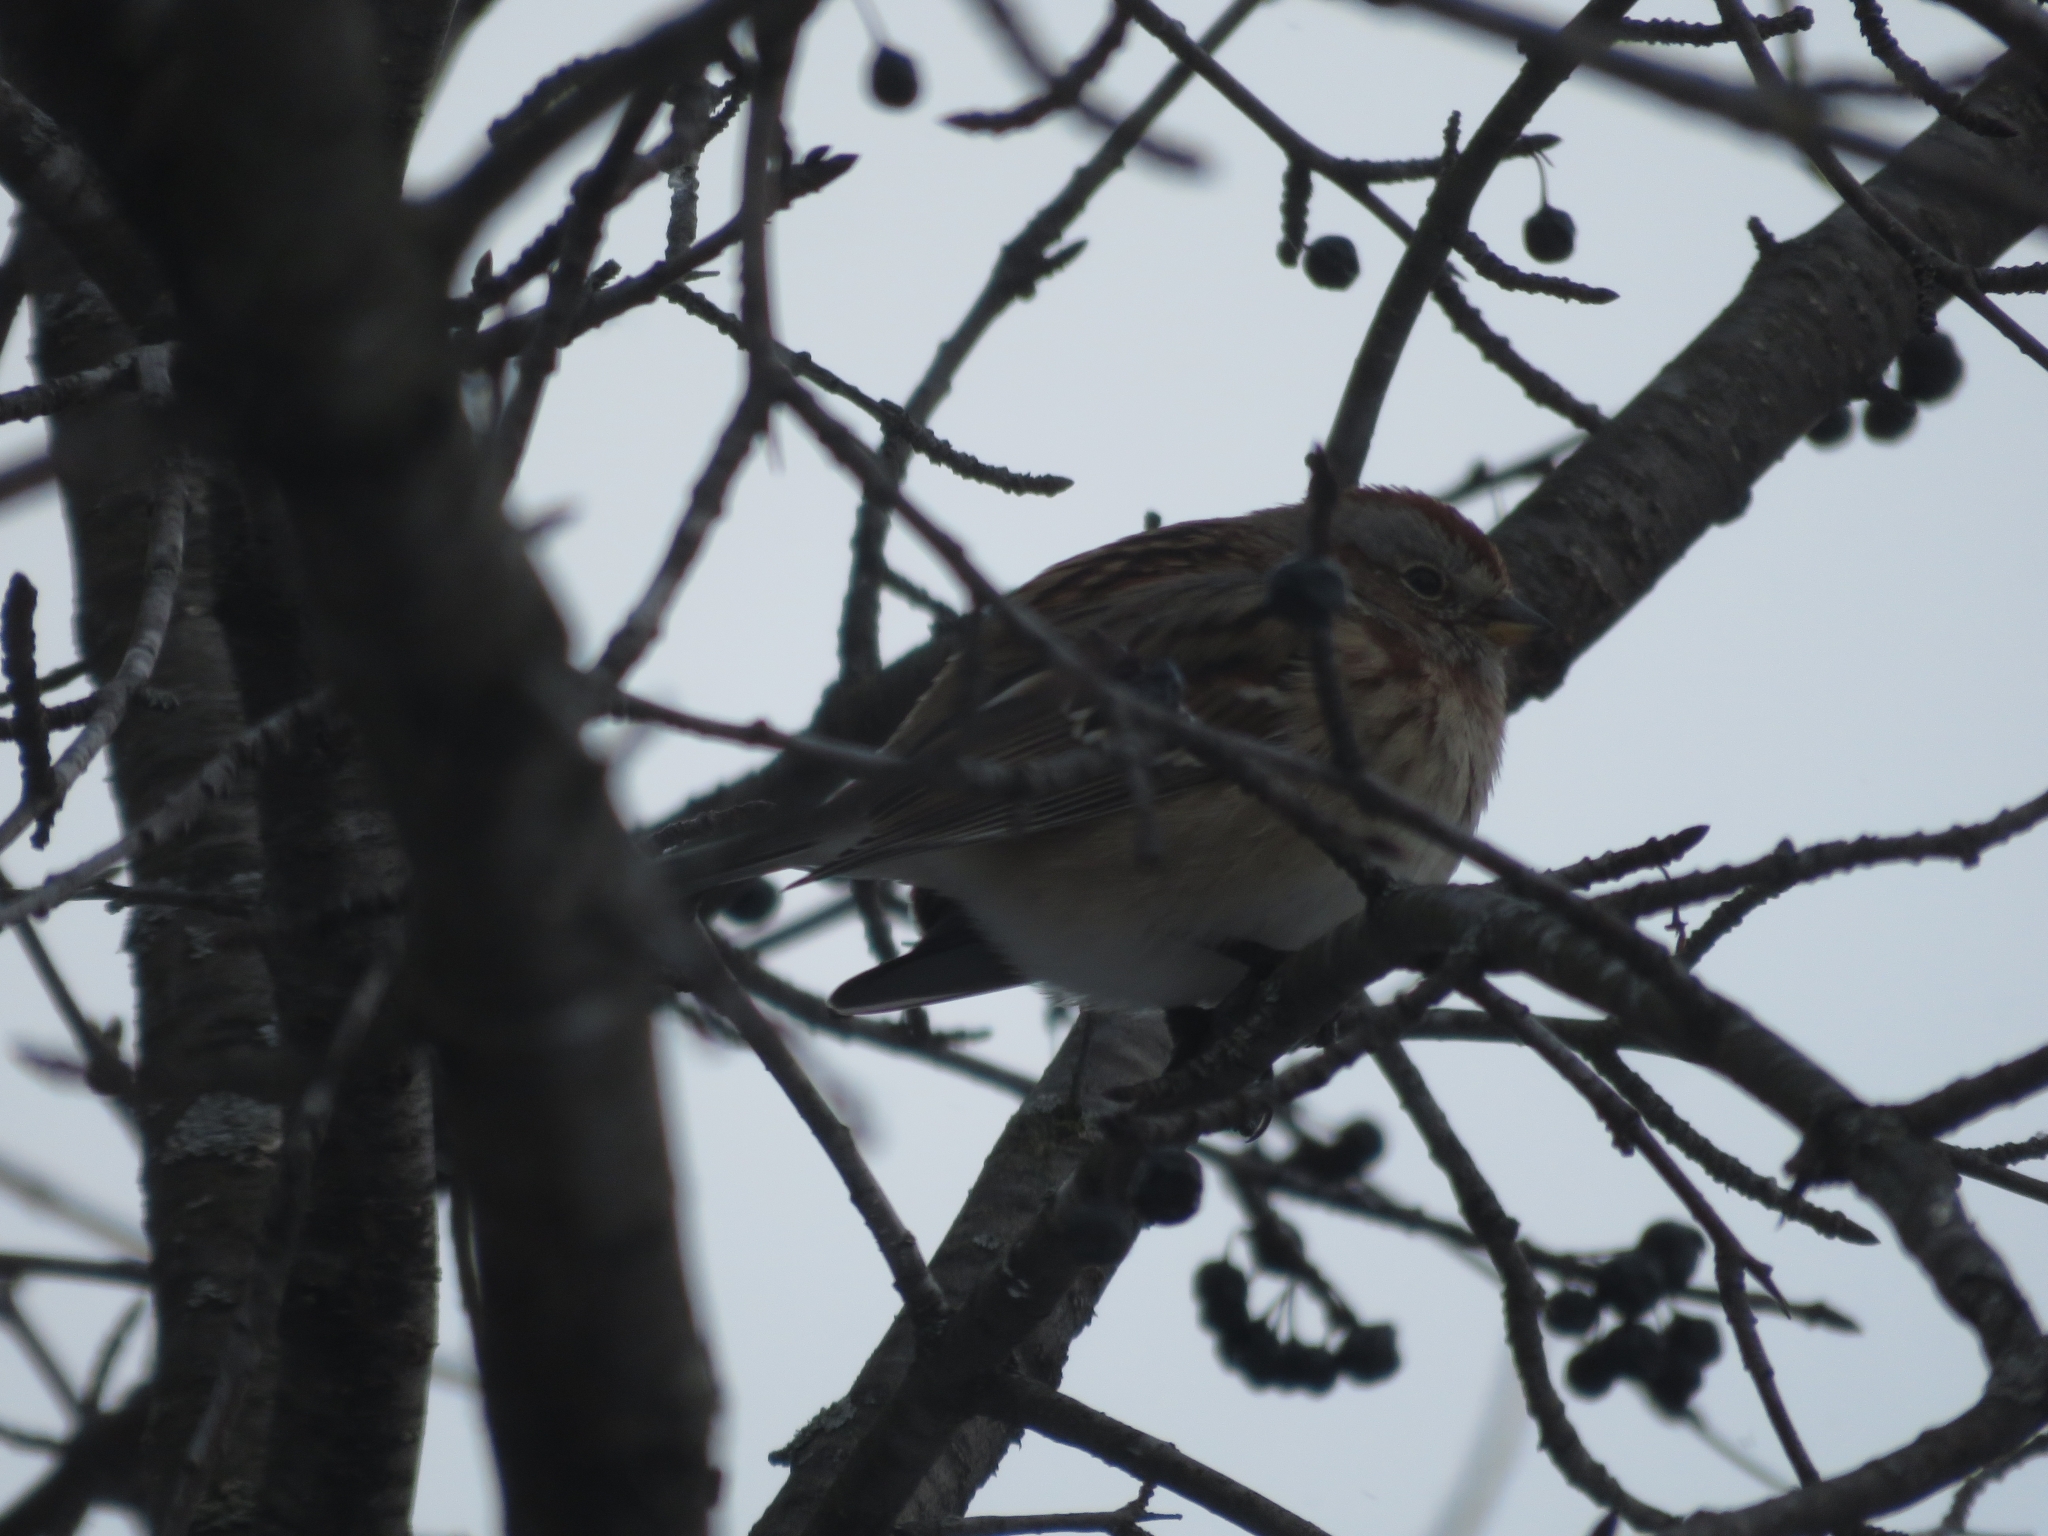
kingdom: Animalia
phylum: Chordata
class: Aves
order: Passeriformes
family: Passerellidae
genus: Spizelloides
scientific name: Spizelloides arborea
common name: American tree sparrow
